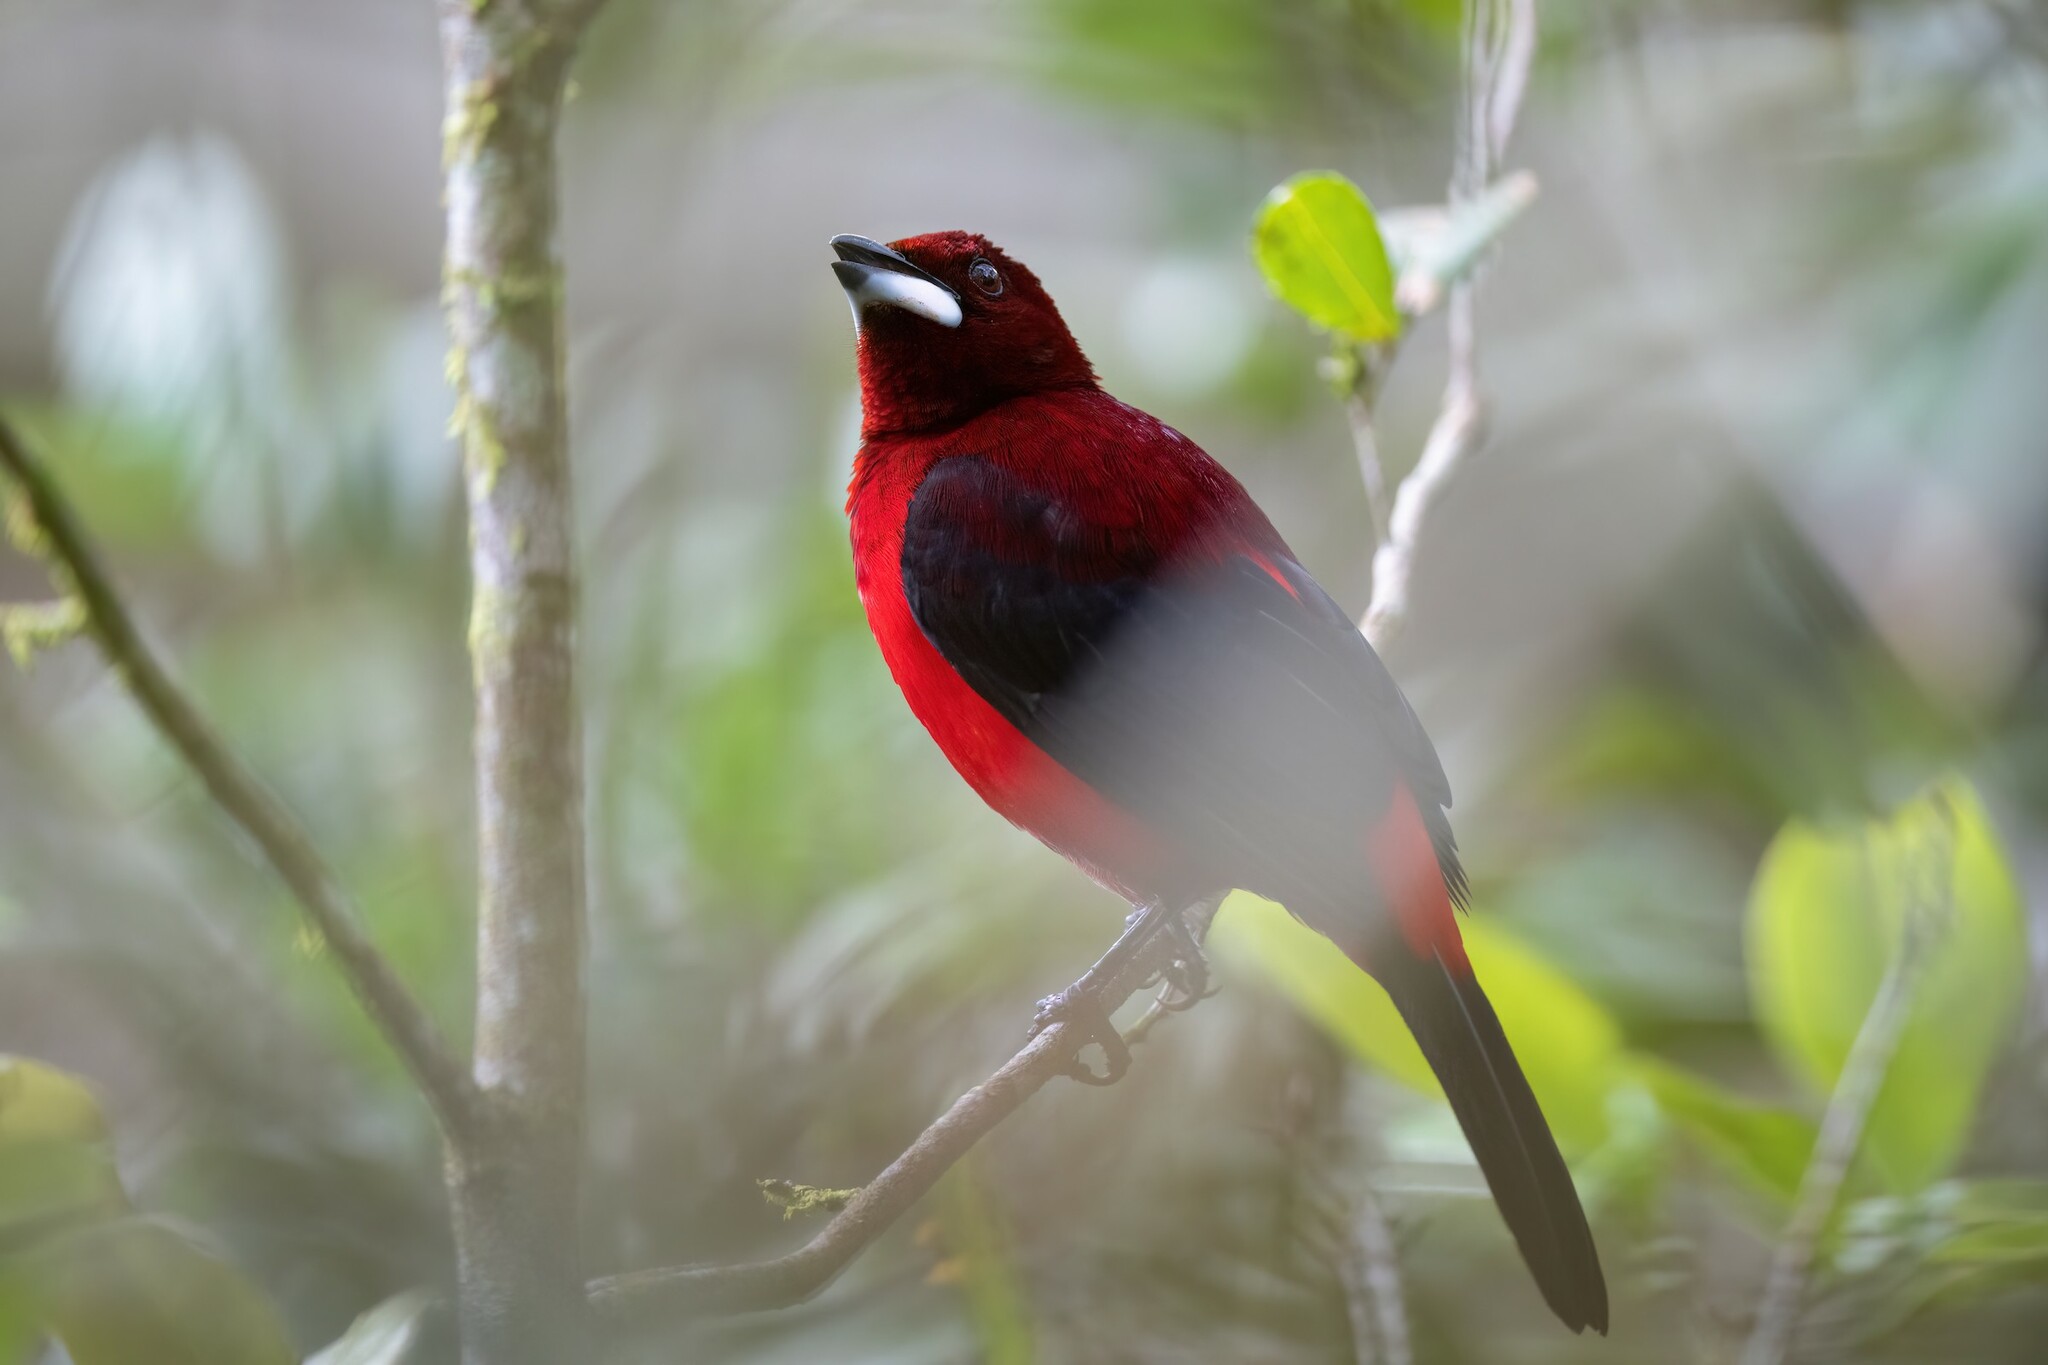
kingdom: Animalia
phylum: Chordata
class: Aves
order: Passeriformes
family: Thraupidae
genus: Ramphocelus
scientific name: Ramphocelus dimidiatus
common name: Crimson-backed tanager
